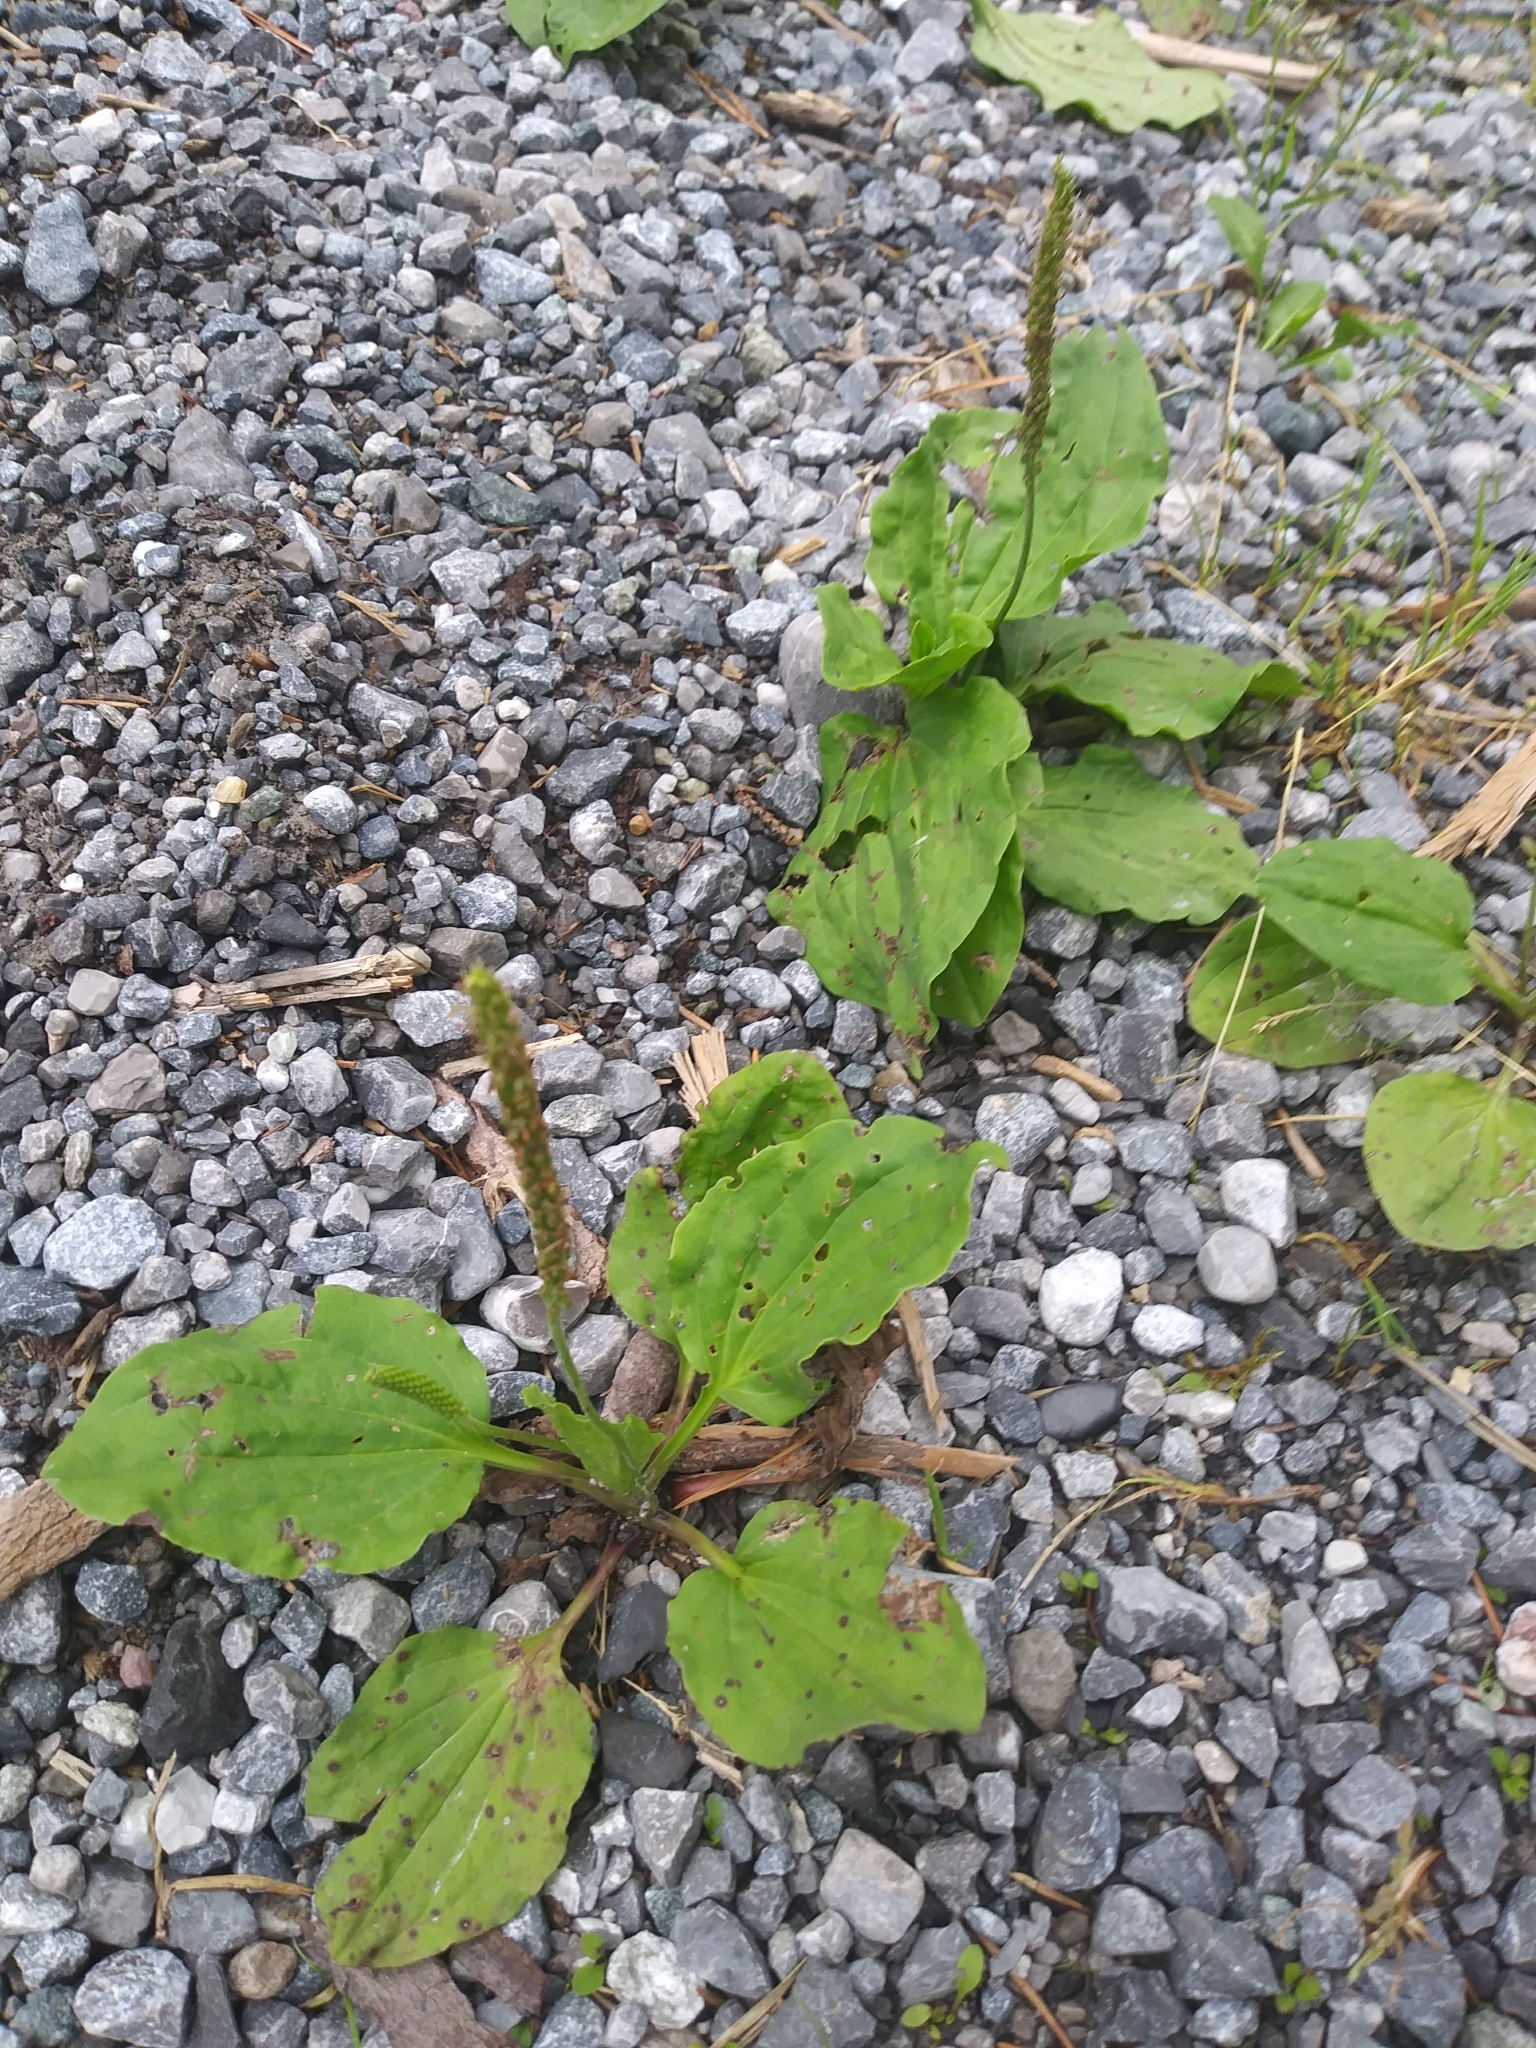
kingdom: Plantae
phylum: Tracheophyta
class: Magnoliopsida
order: Lamiales
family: Plantaginaceae
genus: Plantago
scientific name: Plantago major
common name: Common plantain
